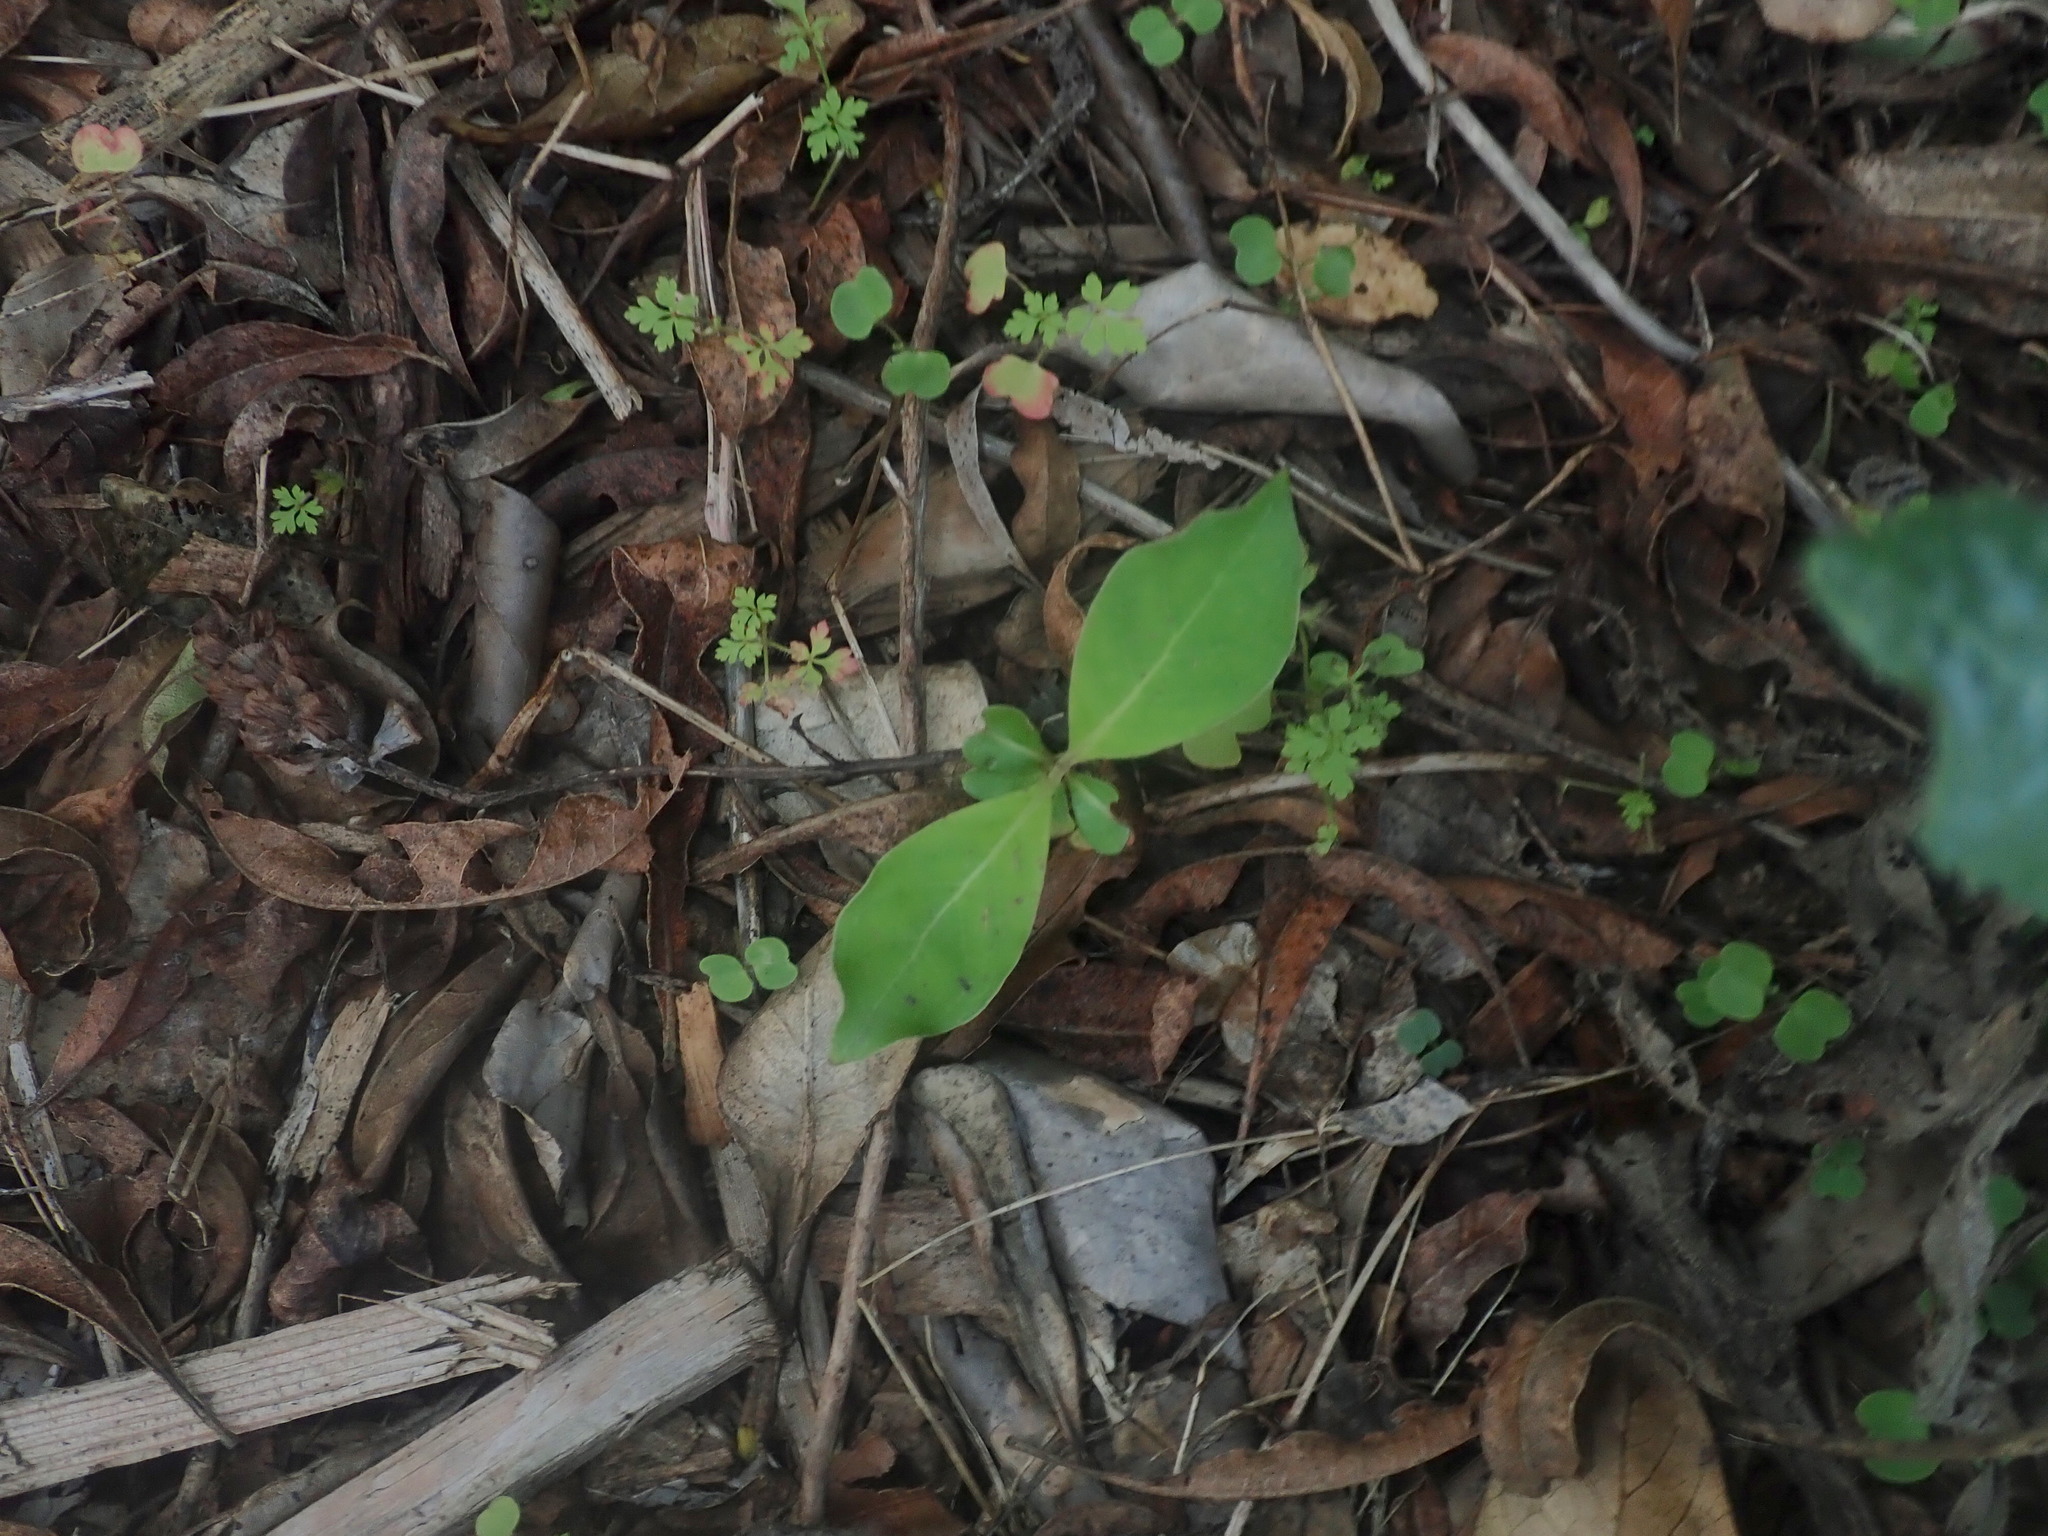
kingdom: Plantae
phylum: Tracheophyta
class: Magnoliopsida
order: Gentianales
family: Rubiaceae
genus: Coprosma
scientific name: Coprosma robusta
